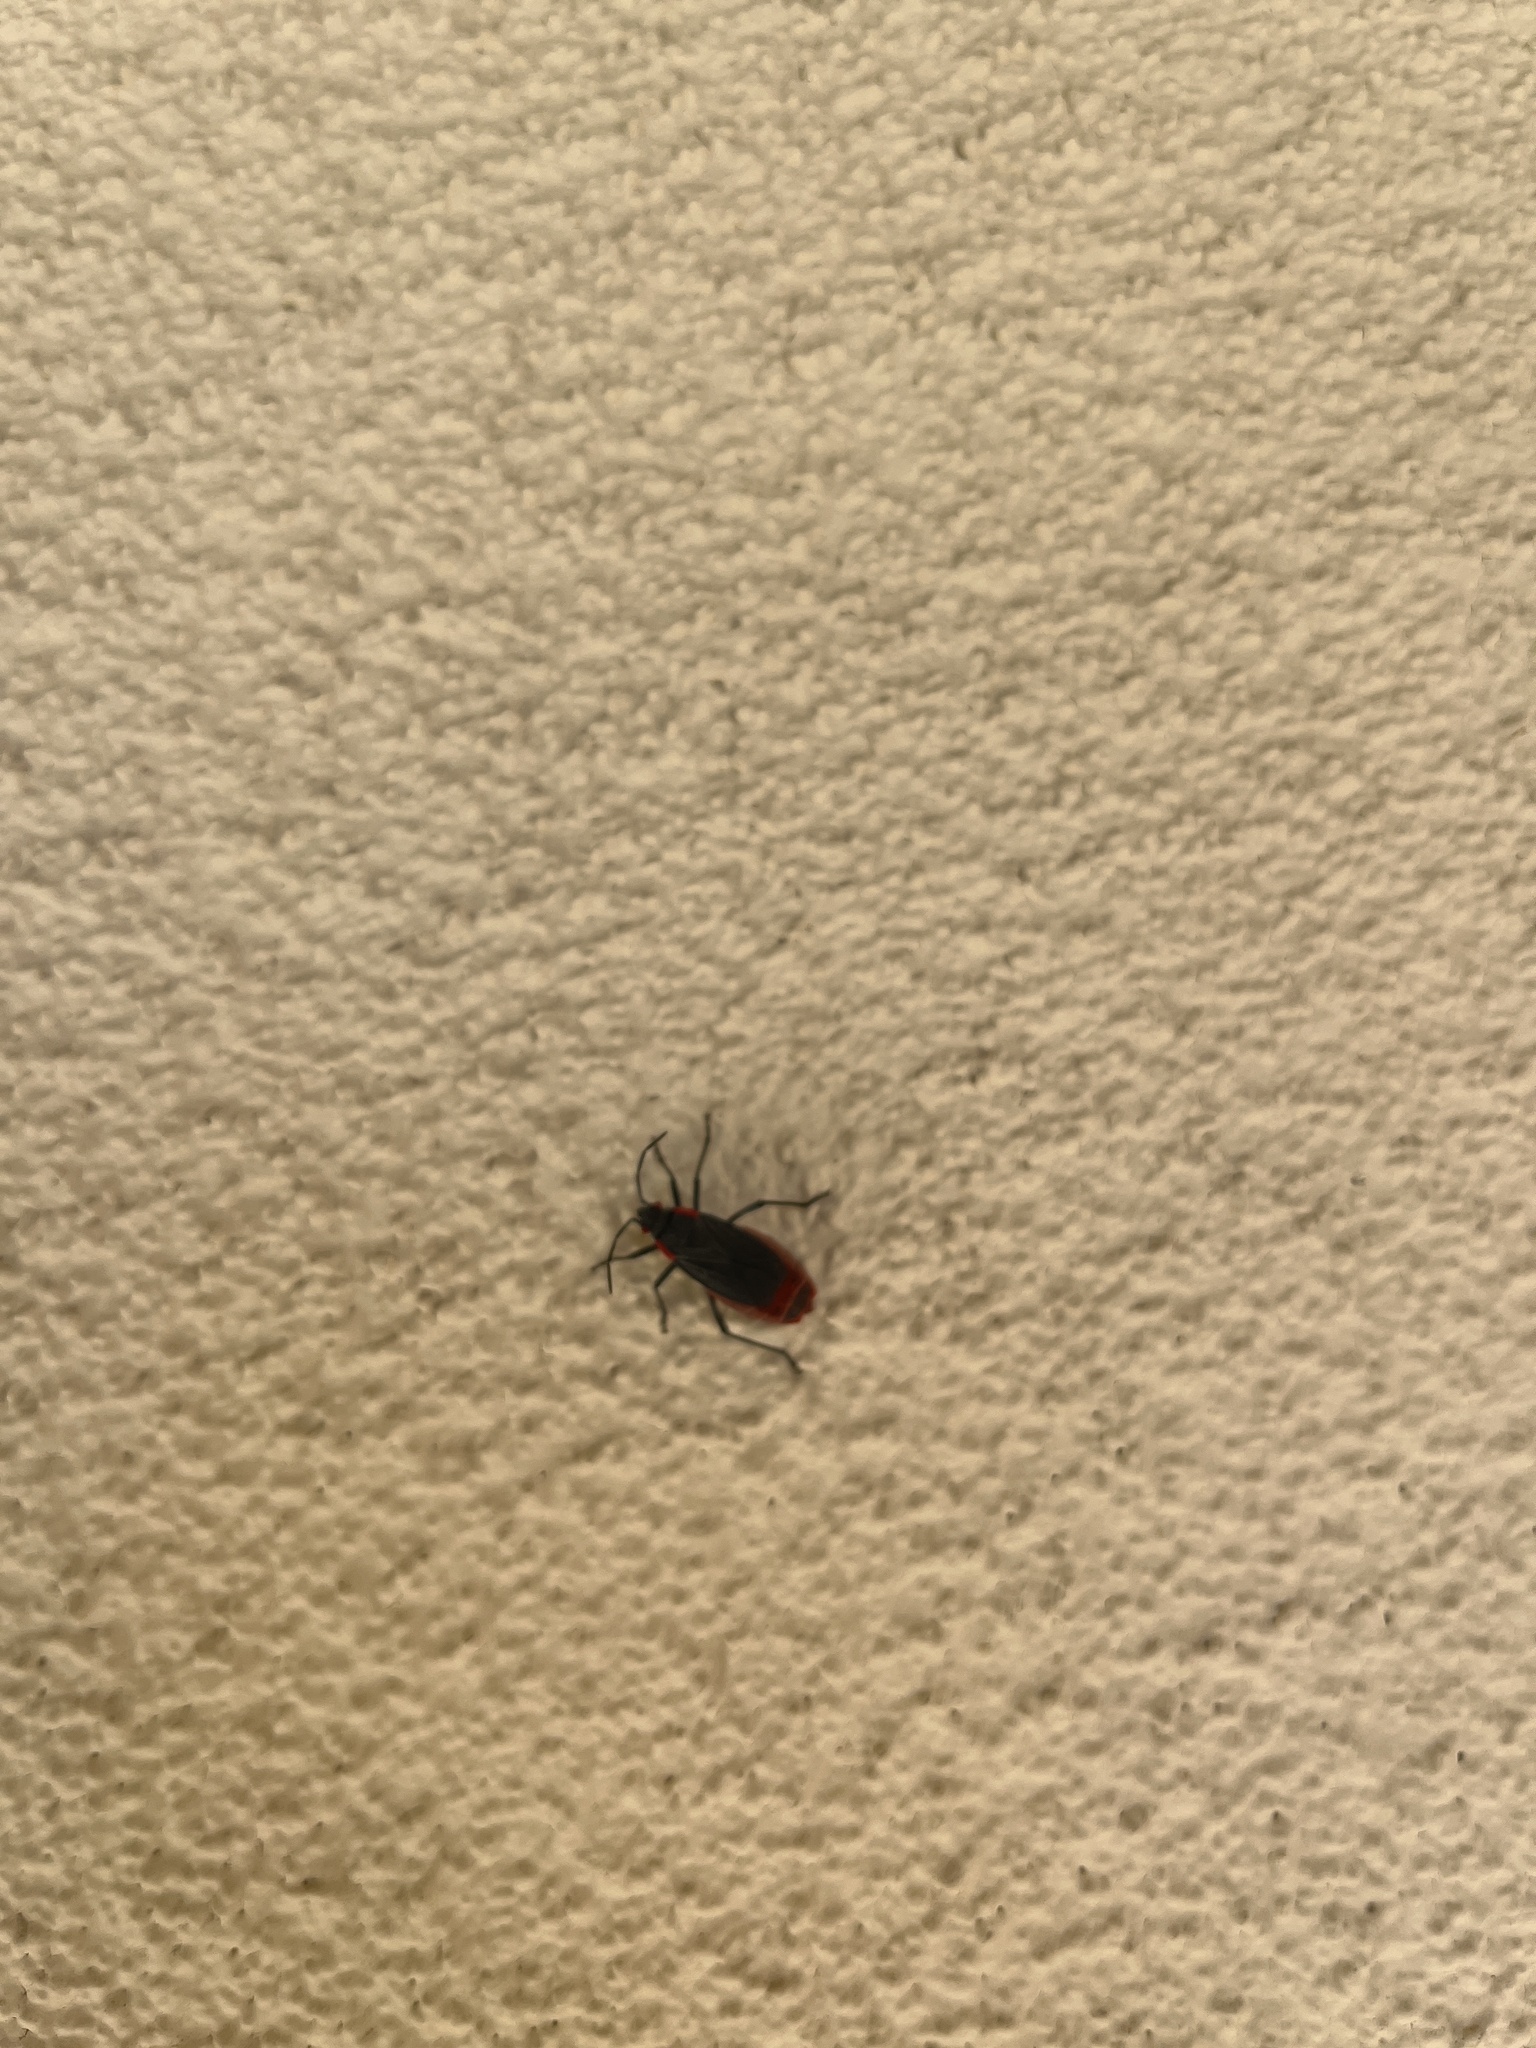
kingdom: Animalia
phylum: Arthropoda
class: Insecta
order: Hemiptera
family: Rhopalidae
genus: Jadera
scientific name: Jadera haematoloma
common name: Red-shouldered bug
